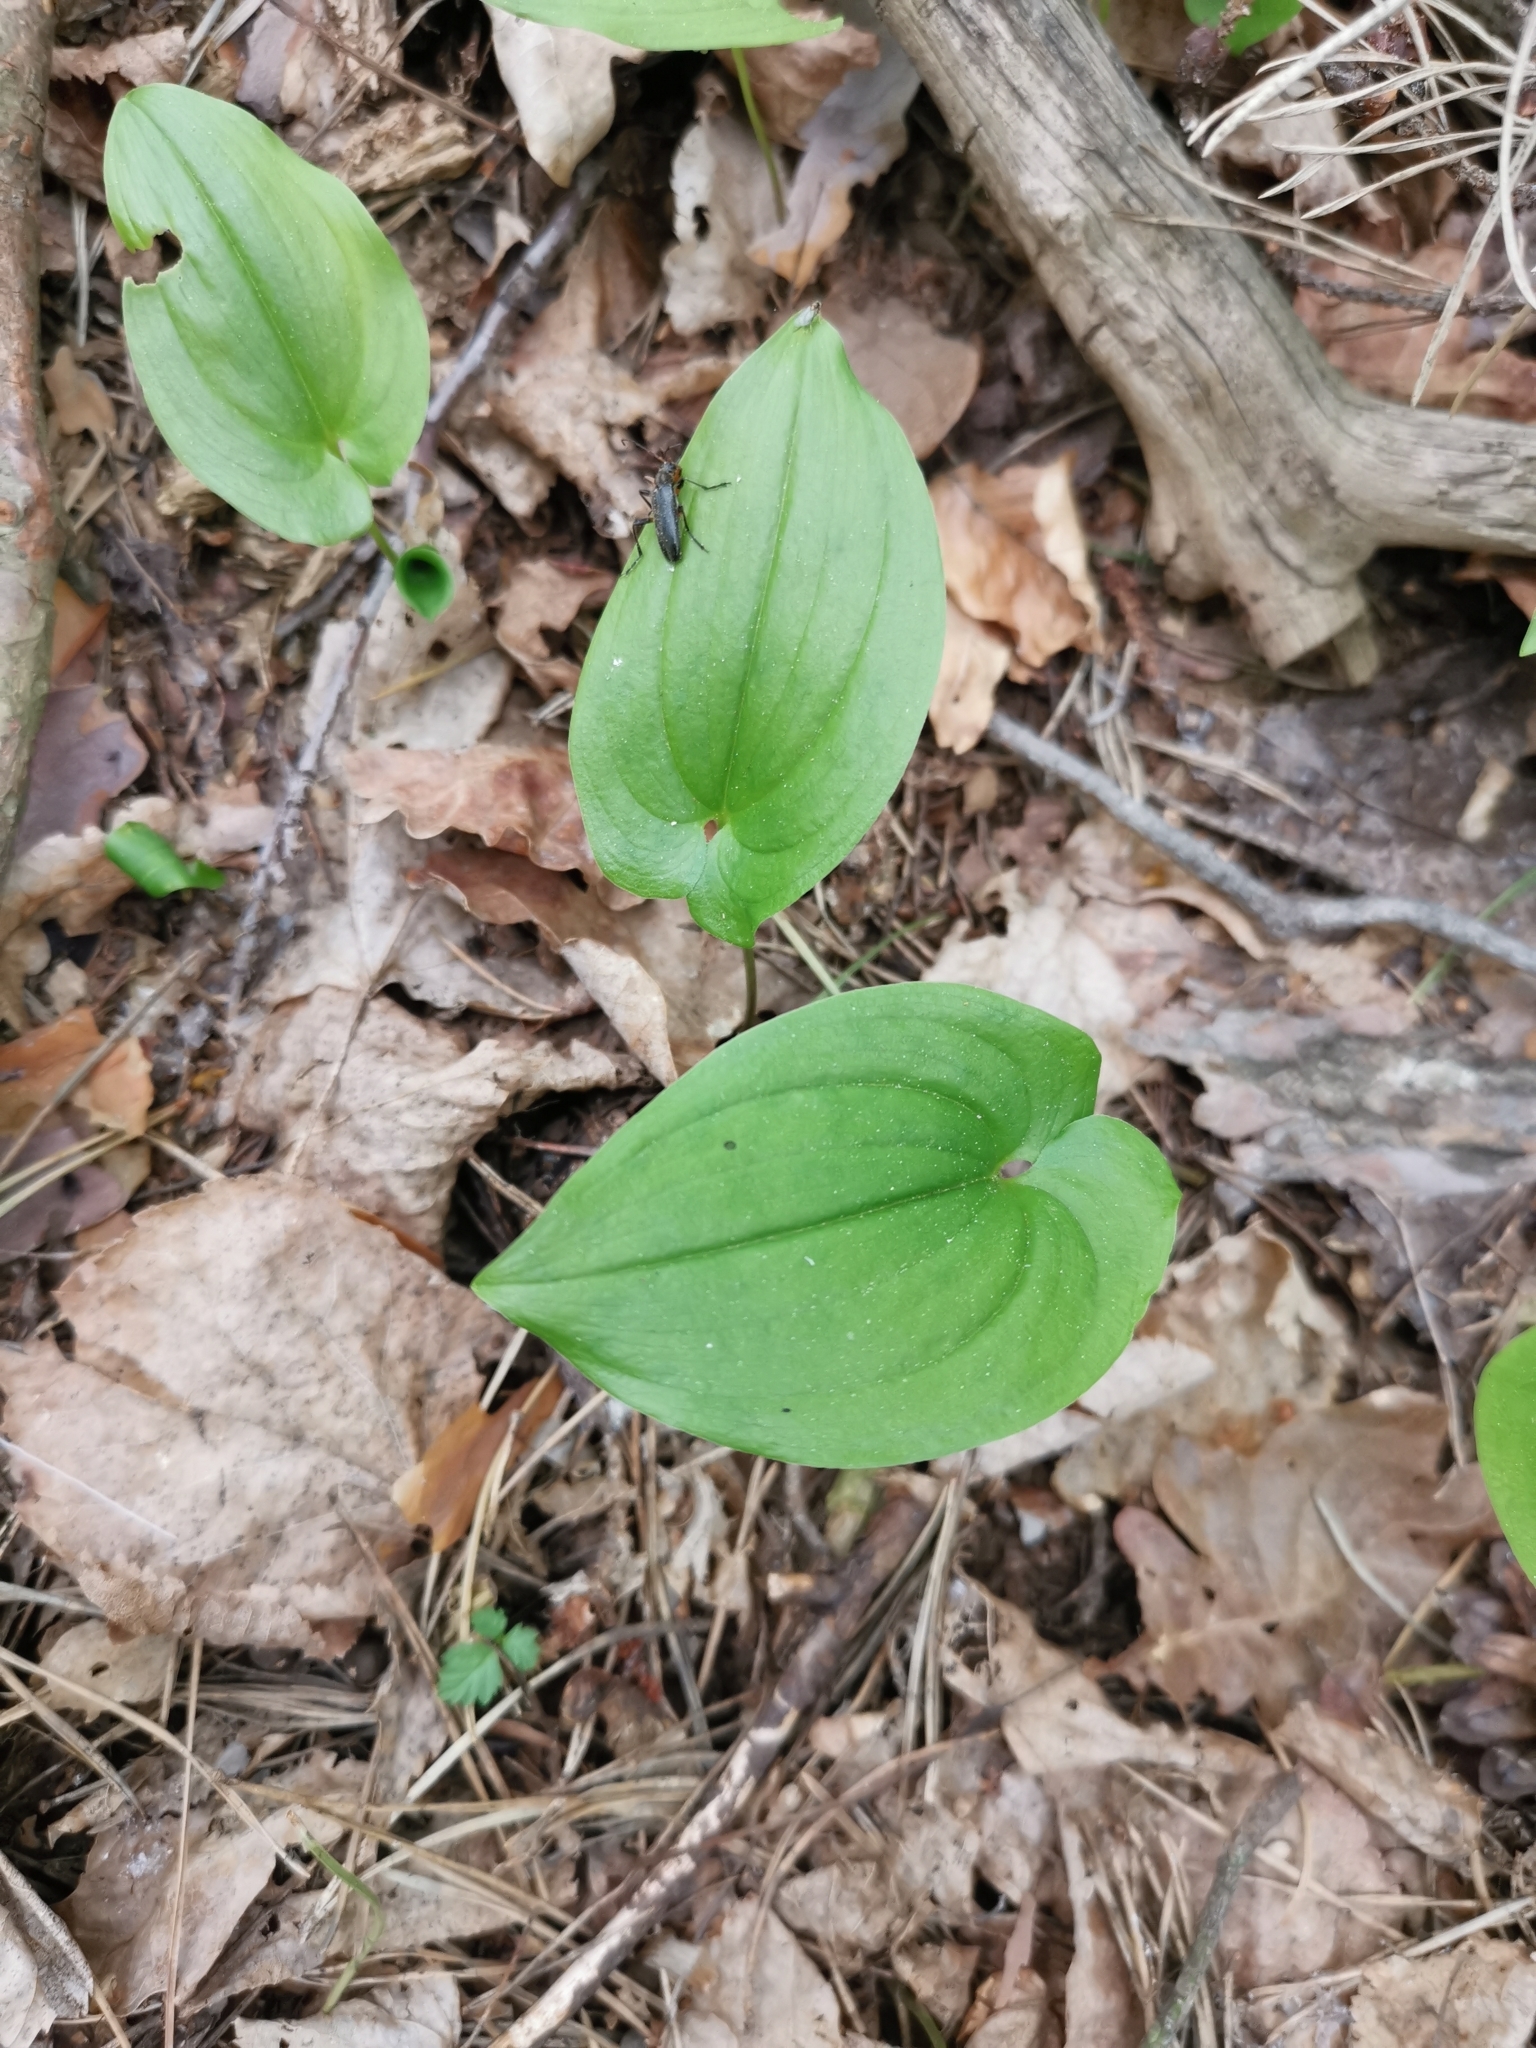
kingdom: Plantae
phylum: Tracheophyta
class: Liliopsida
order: Asparagales
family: Asparagaceae
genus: Maianthemum
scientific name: Maianthemum bifolium
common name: May lily
